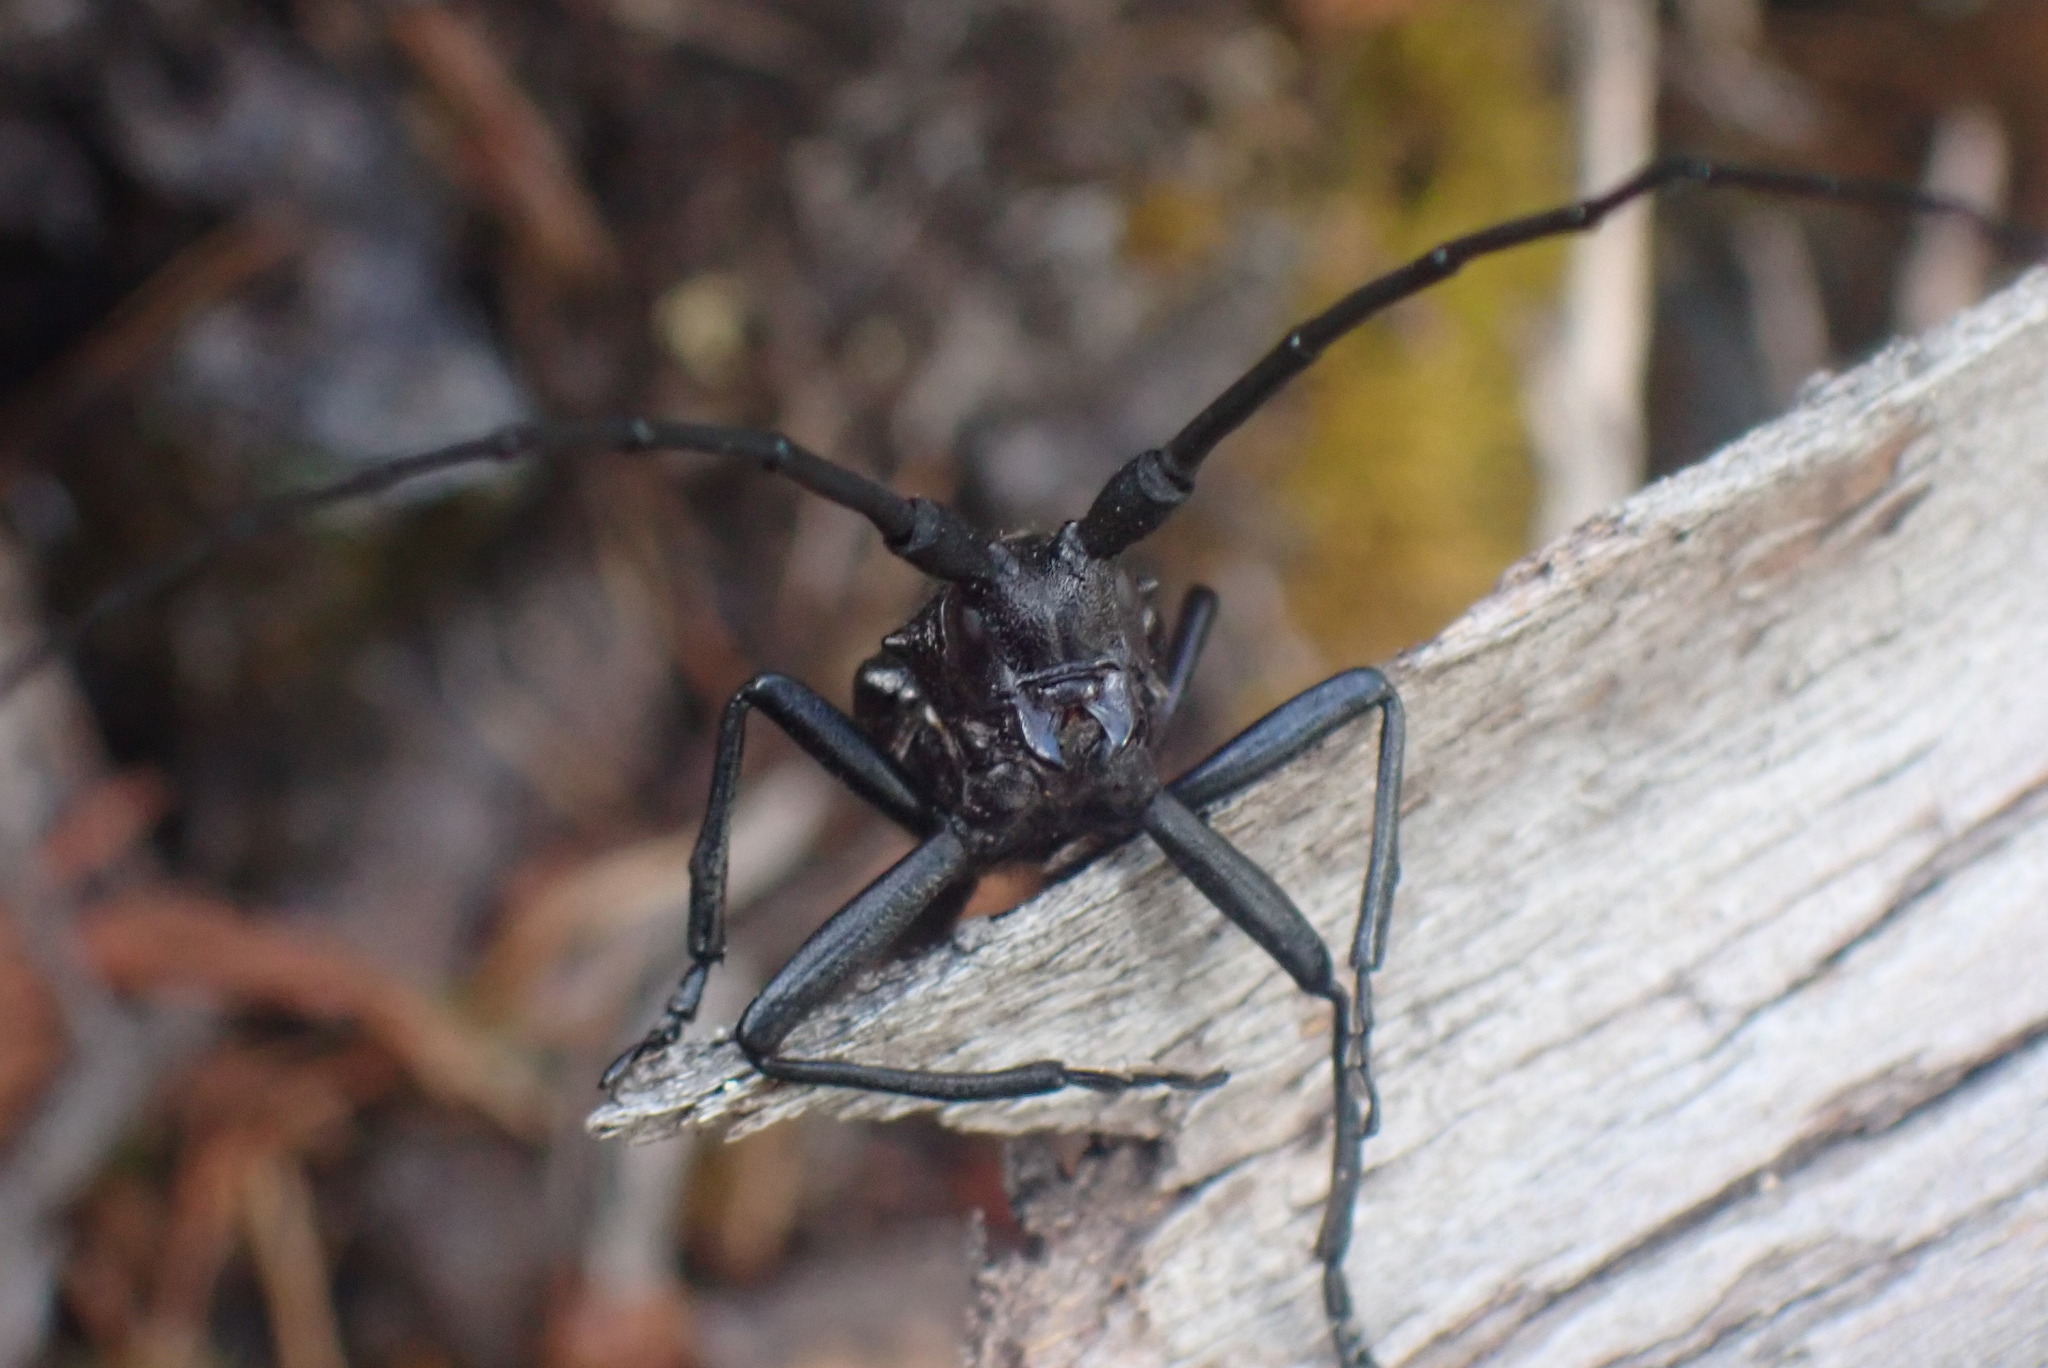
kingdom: Animalia
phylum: Arthropoda
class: Insecta
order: Coleoptera
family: Cerambycidae
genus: Monochamus
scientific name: Monochamus scutellatus
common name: White-spotted sawyer beetle
